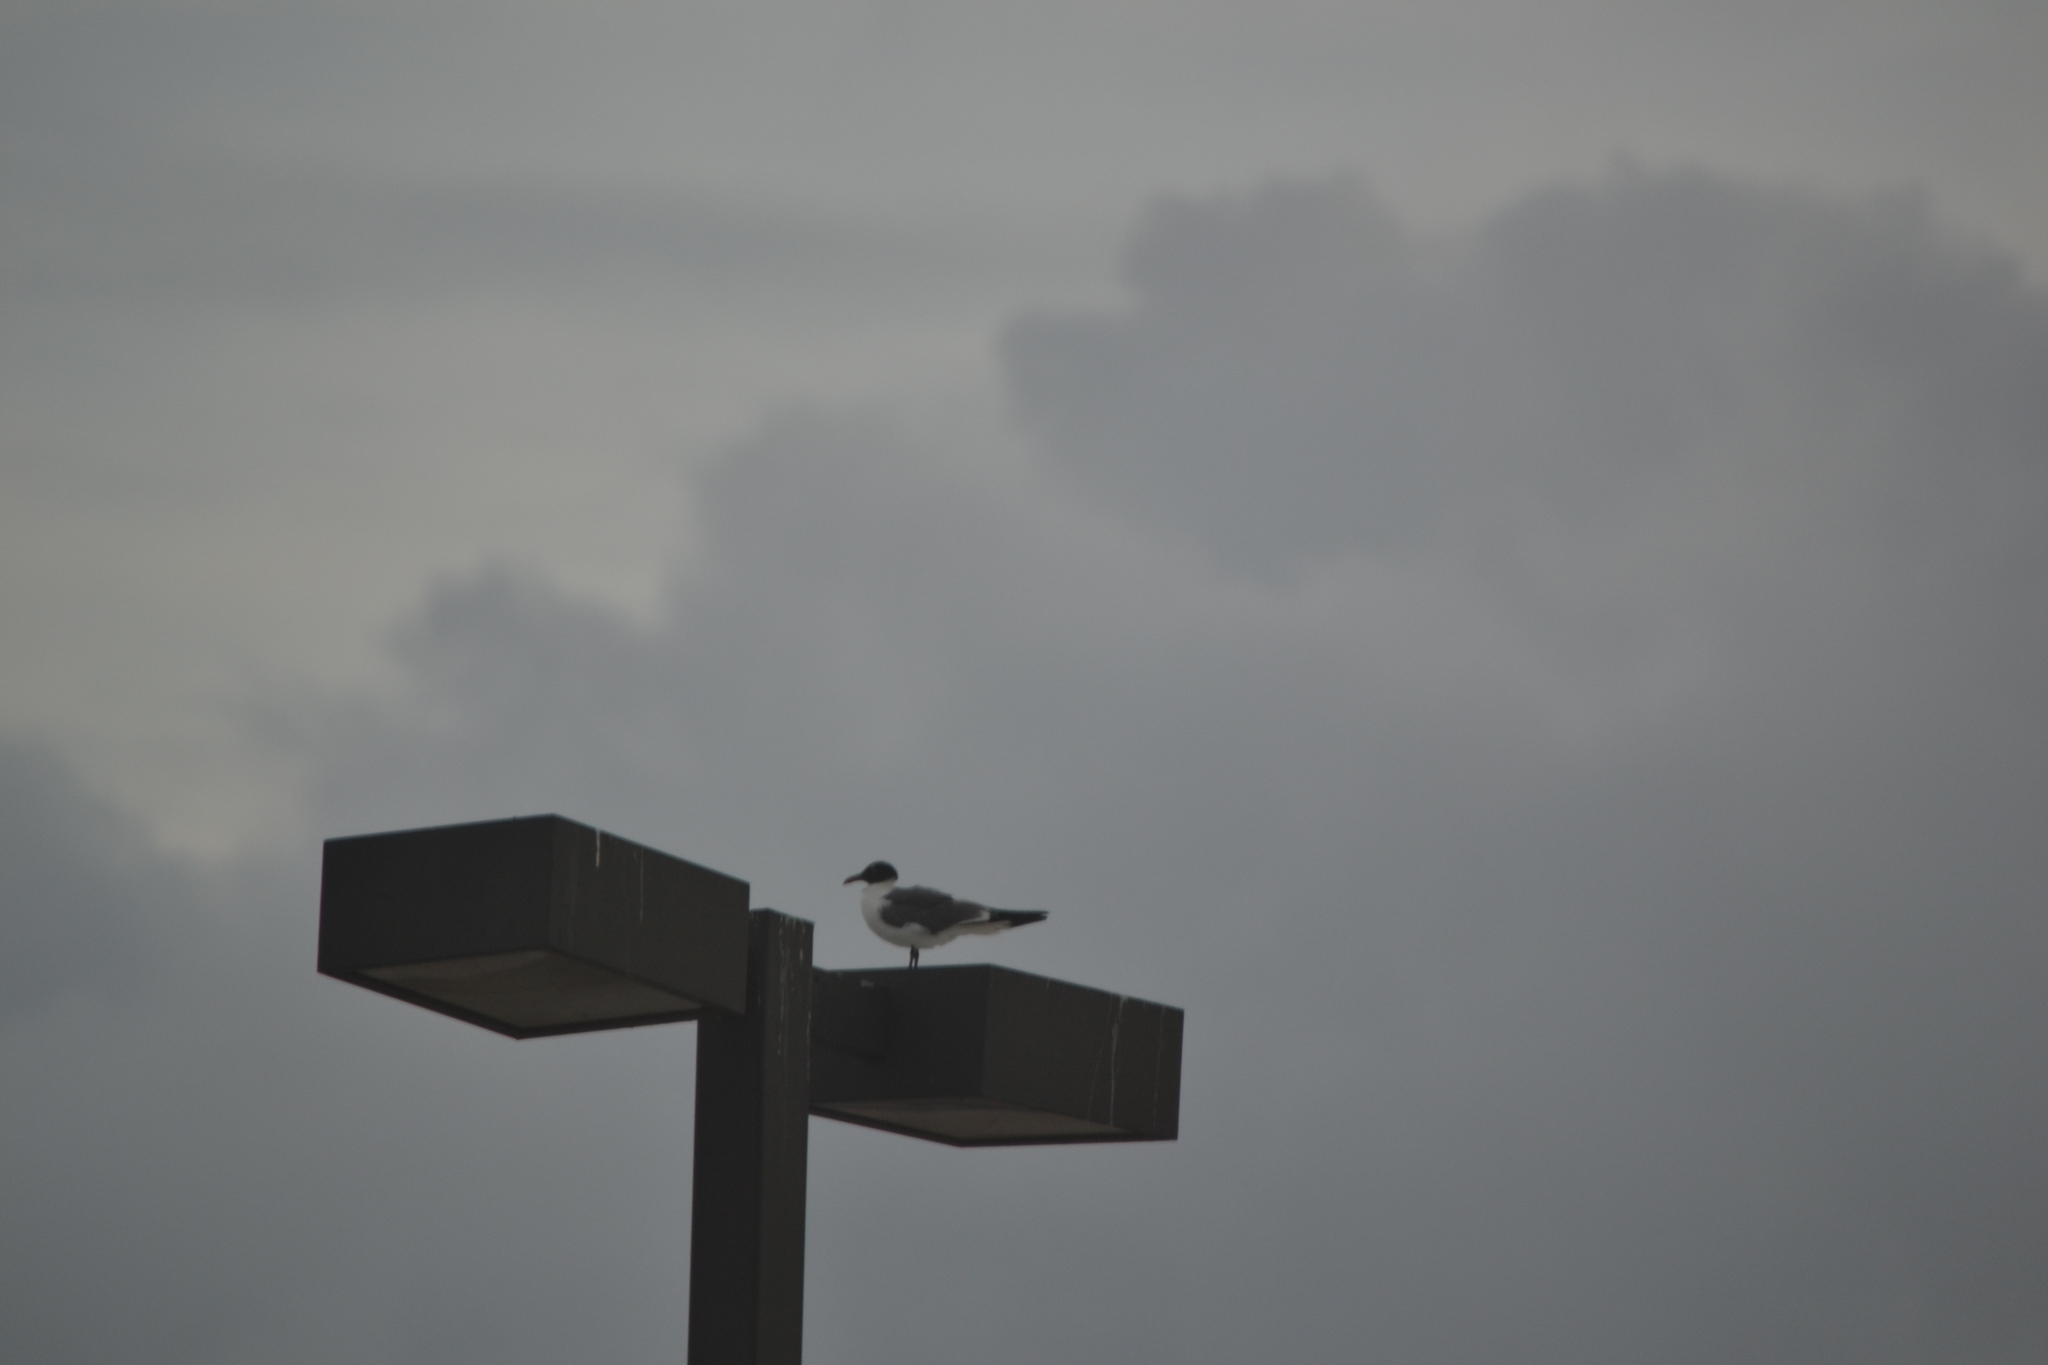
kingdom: Animalia
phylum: Chordata
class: Aves
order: Charadriiformes
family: Laridae
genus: Leucophaeus
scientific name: Leucophaeus atricilla
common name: Laughing gull
